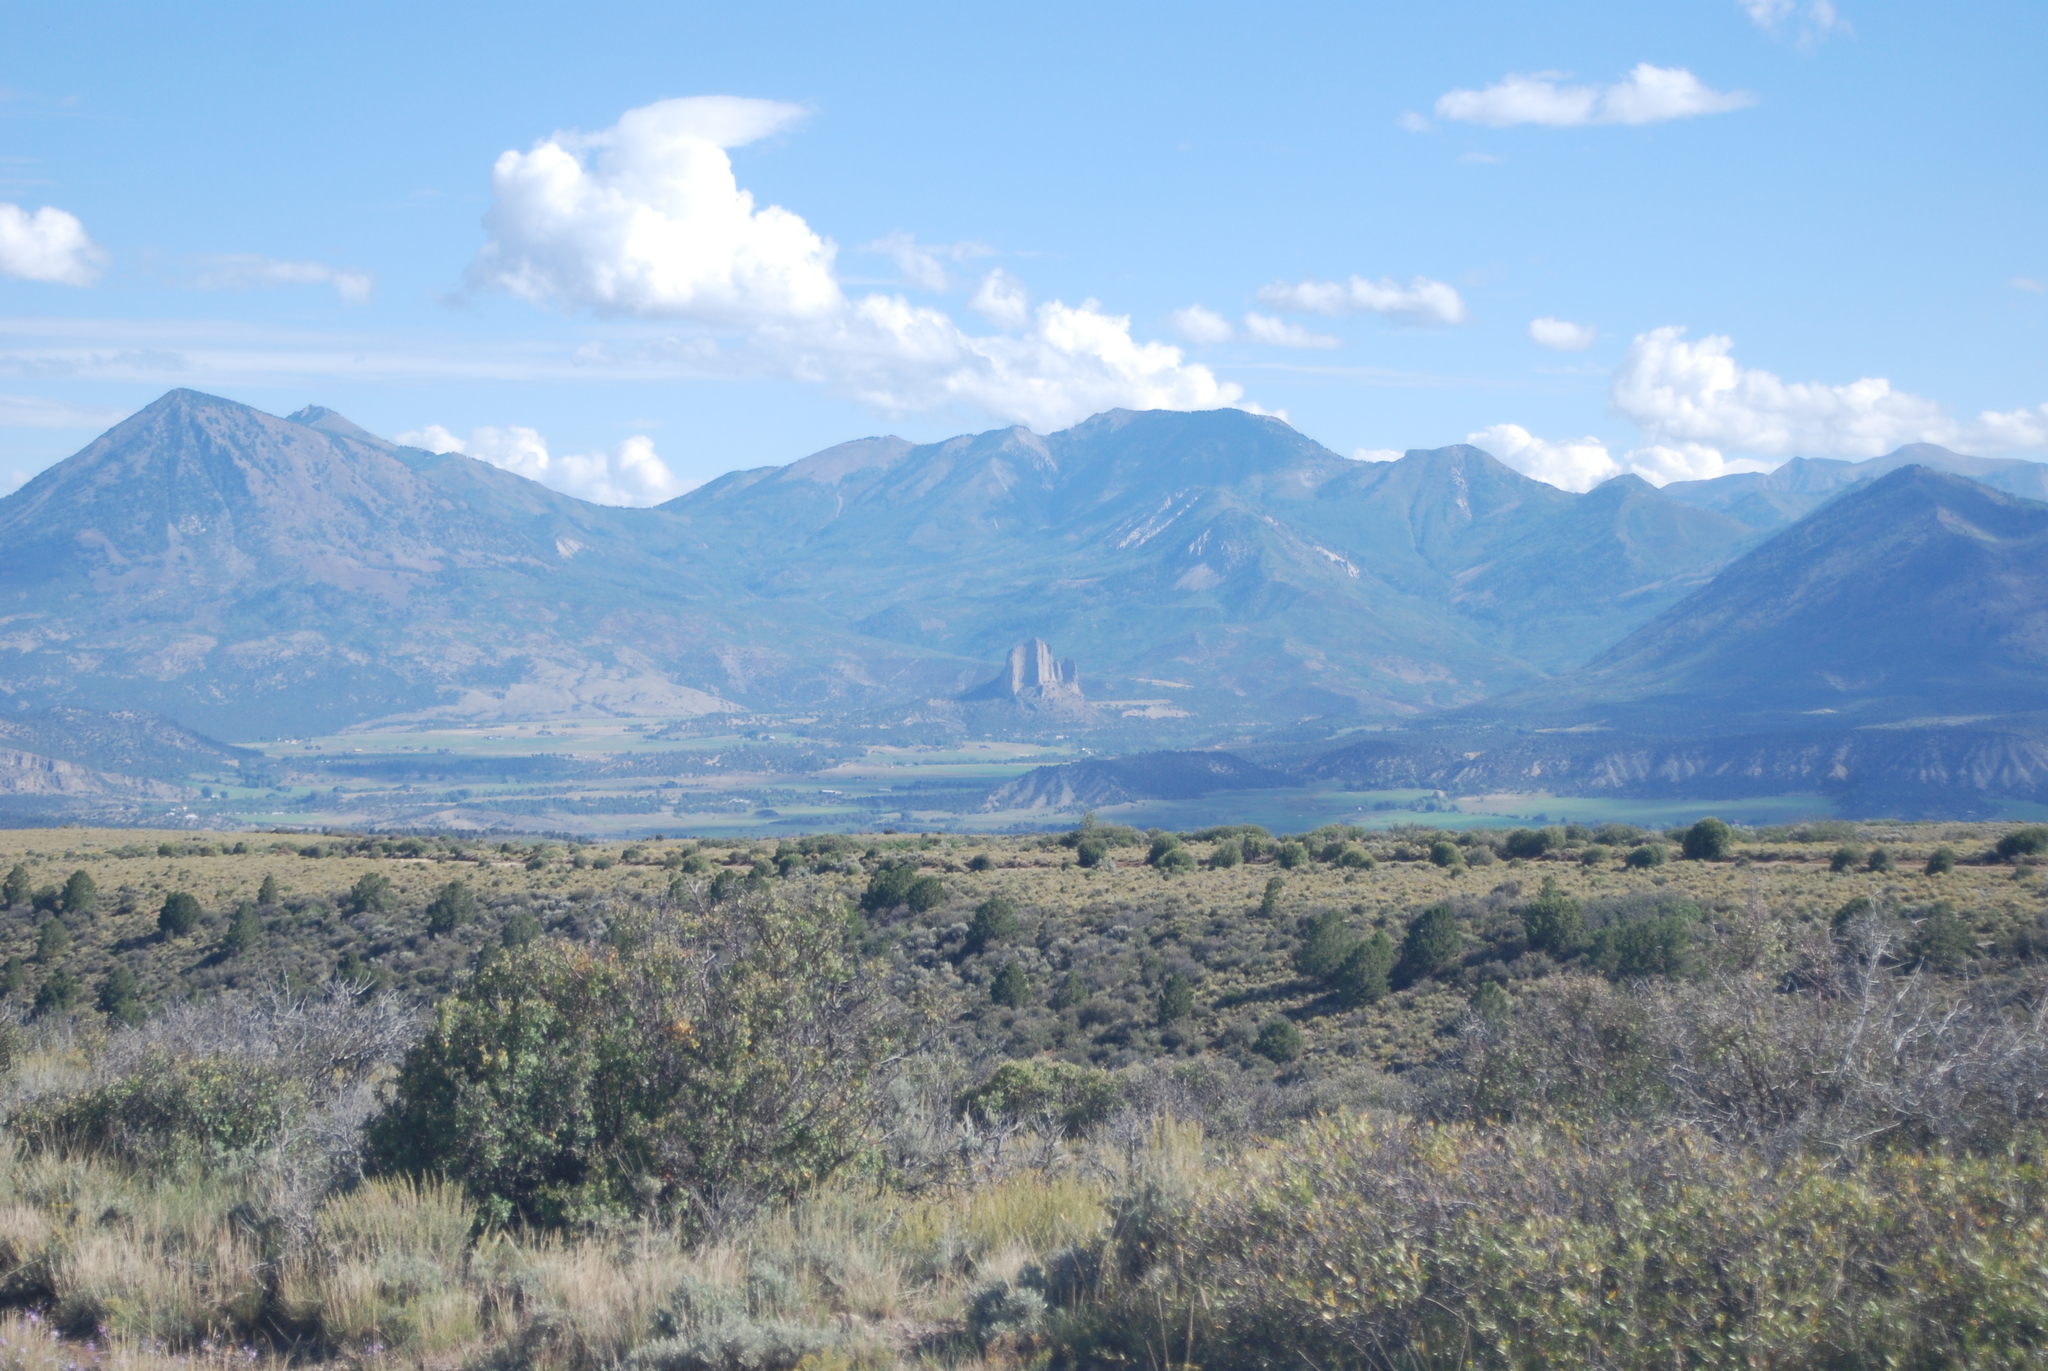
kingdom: Plantae
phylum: Tracheophyta
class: Magnoliopsida
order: Fagales
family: Fagaceae
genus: Quercus
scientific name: Quercus gambelii
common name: Gambel oak
